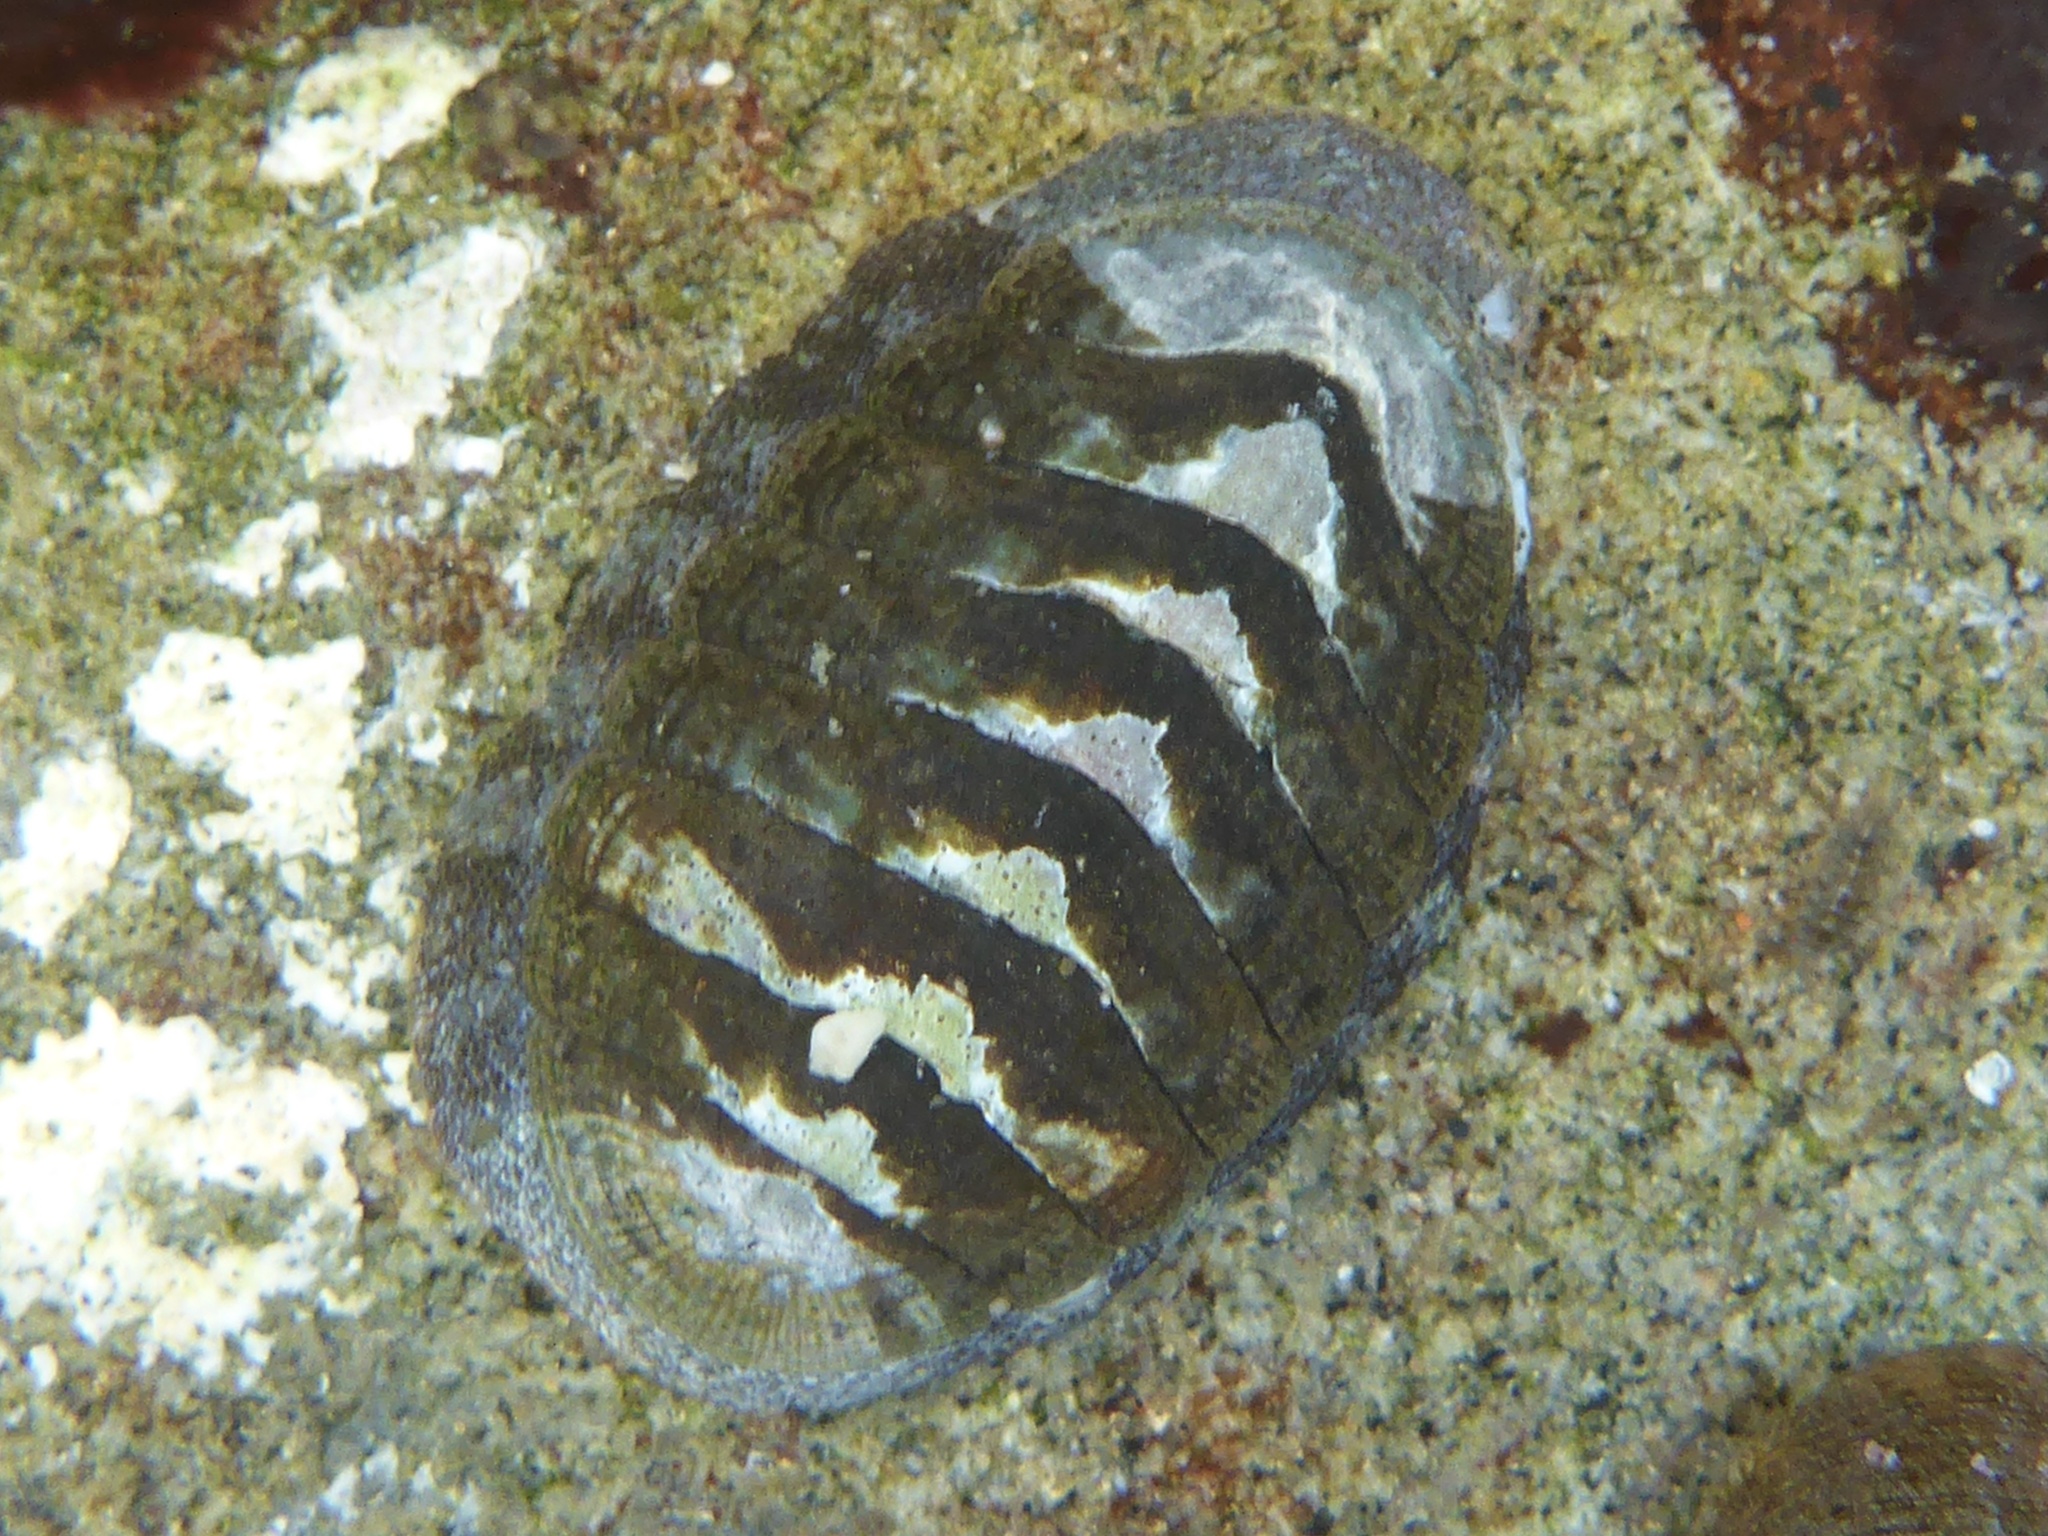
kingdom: Animalia
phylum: Mollusca
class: Polyplacophora
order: Chitonida
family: Ischnochitonidae
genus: Lepidozona
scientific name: Lepidozona radians
